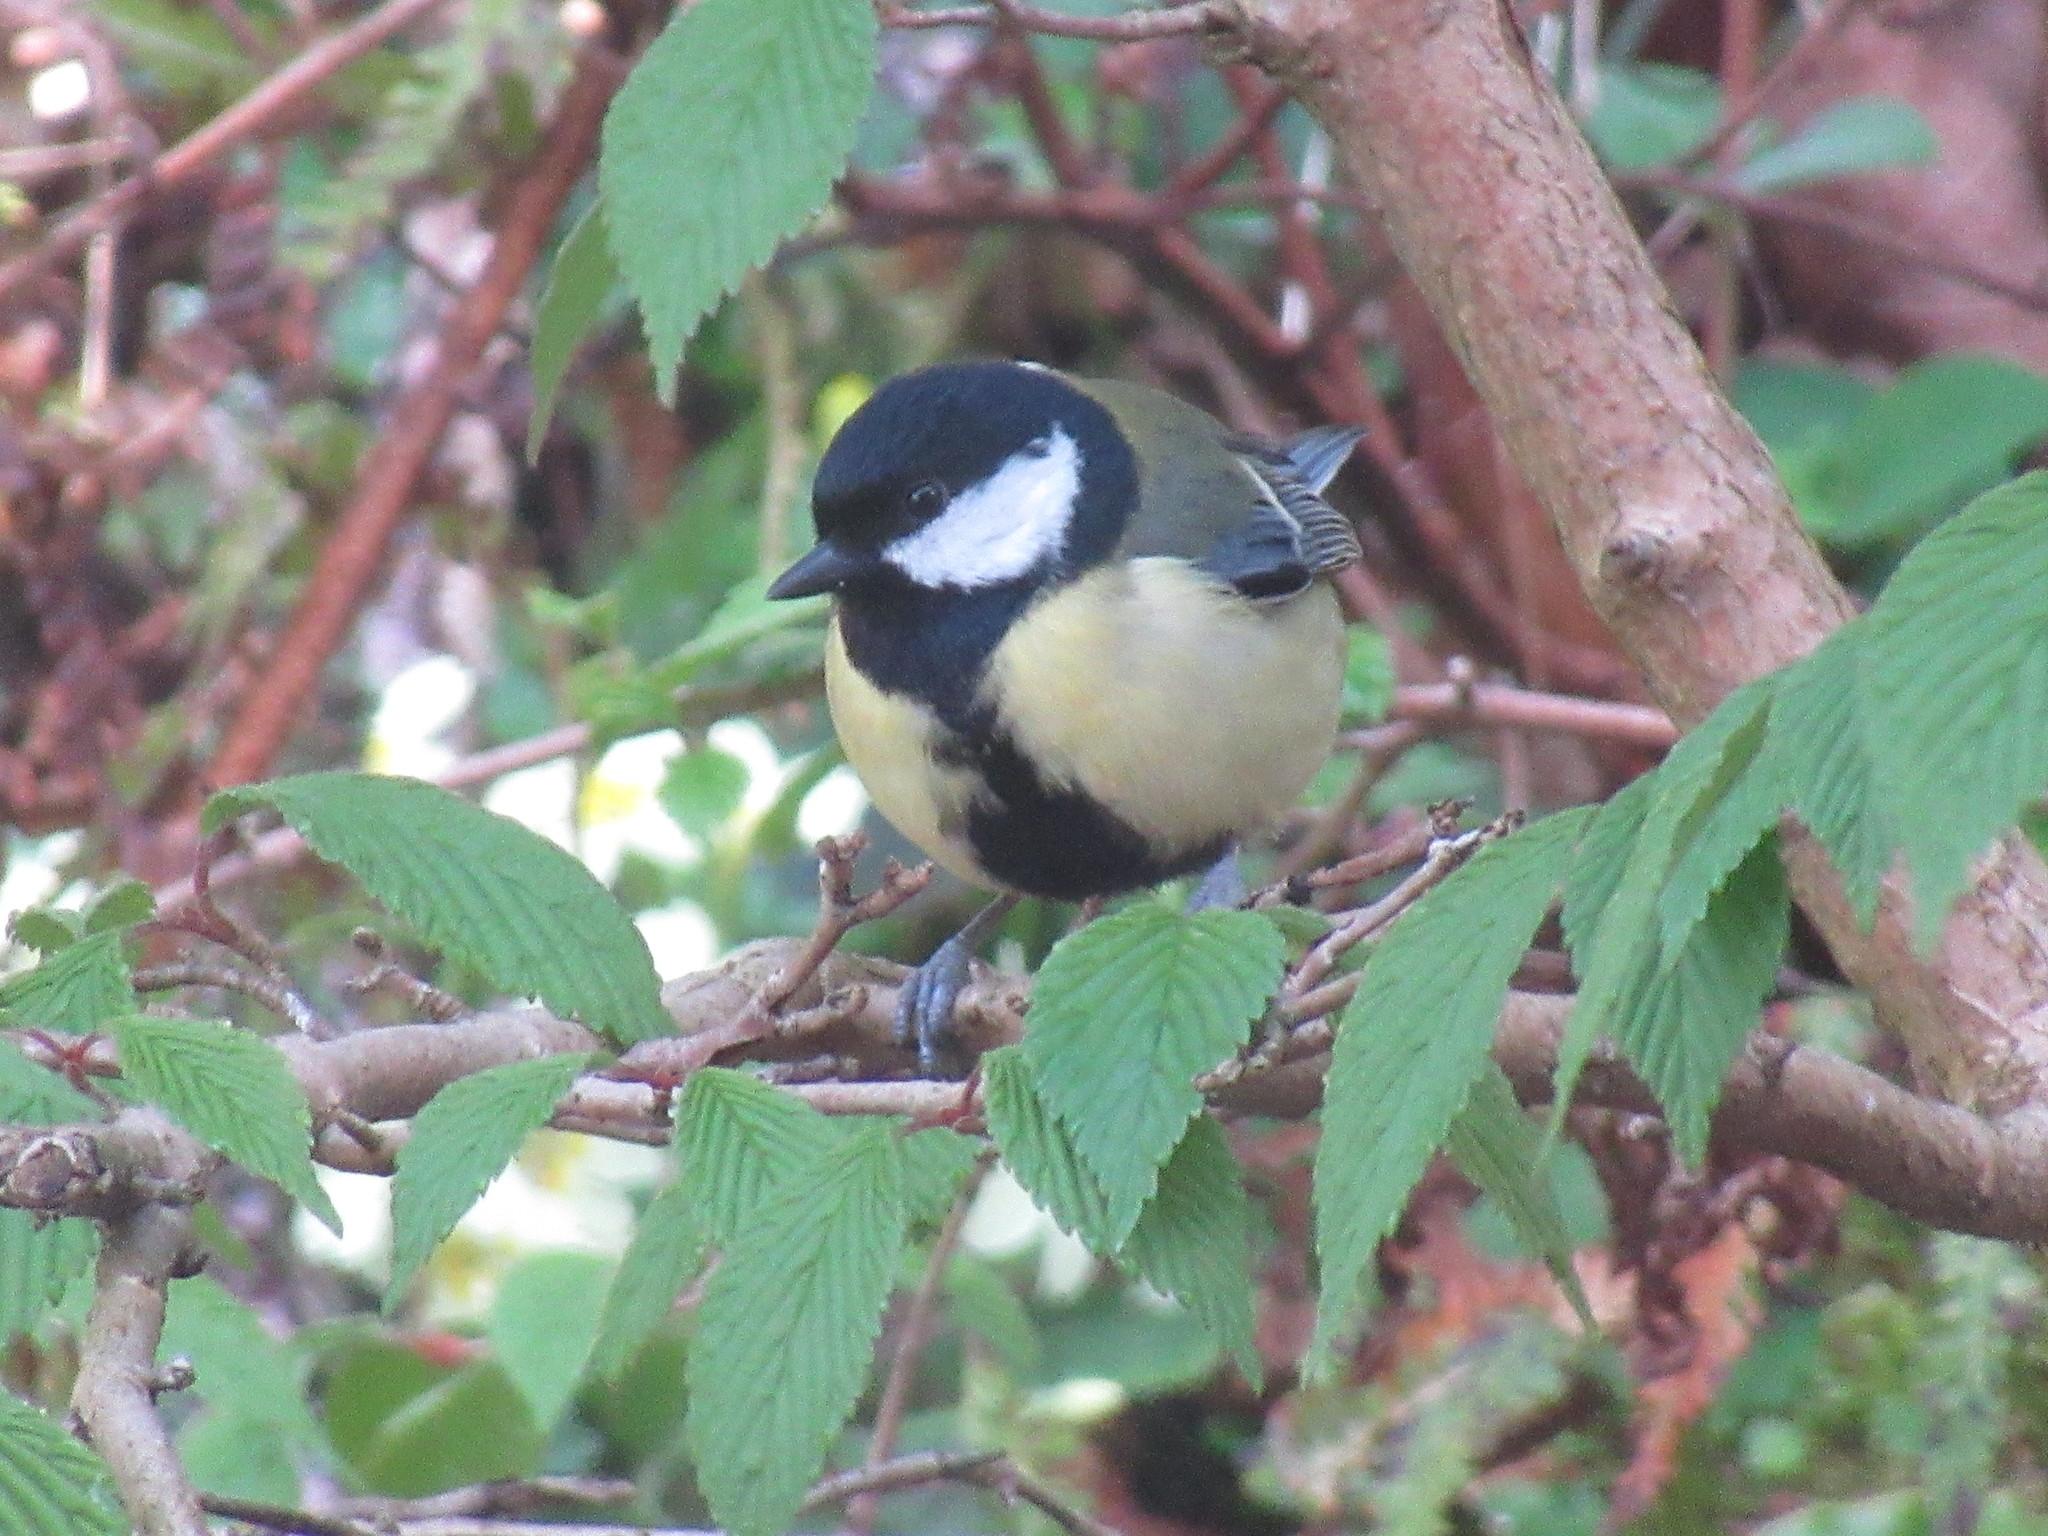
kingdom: Animalia
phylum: Chordata
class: Aves
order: Passeriformes
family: Paridae
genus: Parus
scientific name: Parus major
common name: Great tit
